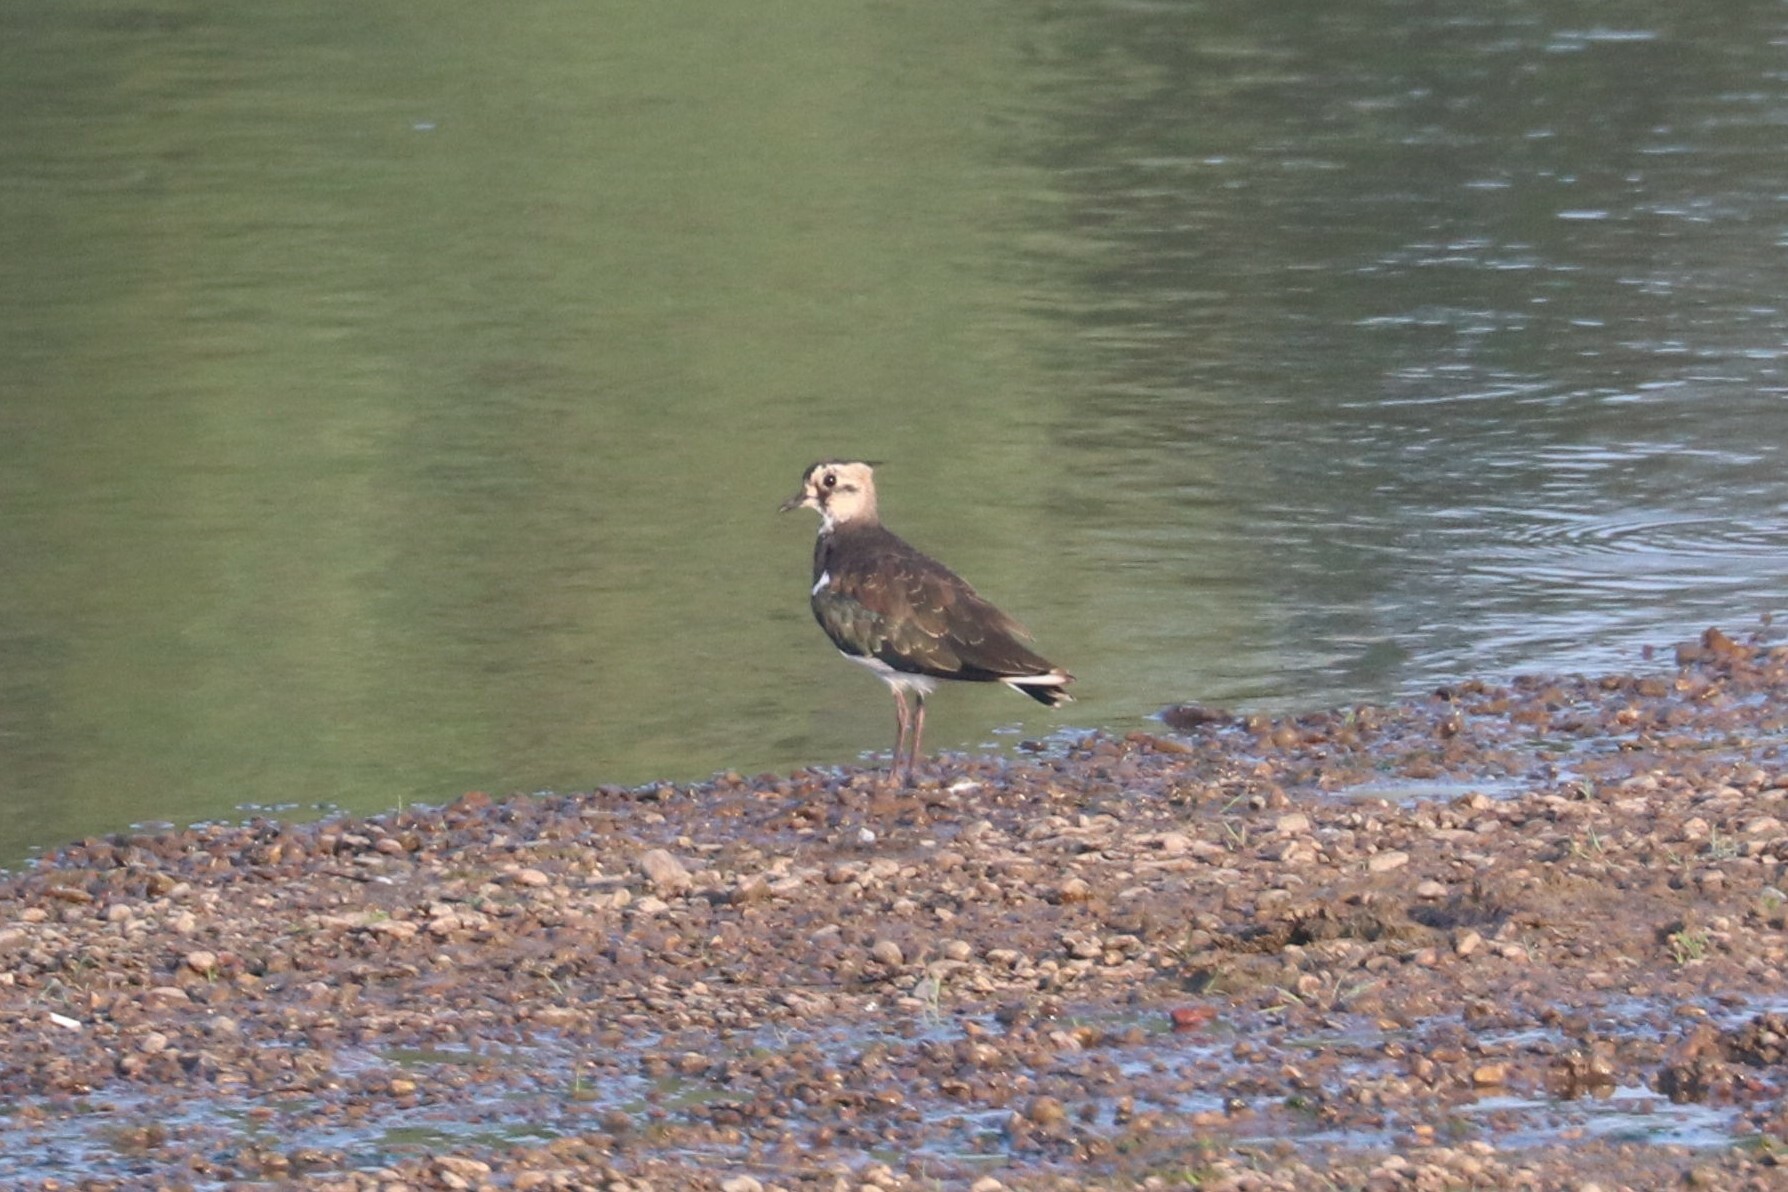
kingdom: Animalia
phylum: Chordata
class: Aves
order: Charadriiformes
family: Charadriidae
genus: Vanellus
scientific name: Vanellus vanellus
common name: Northern lapwing
